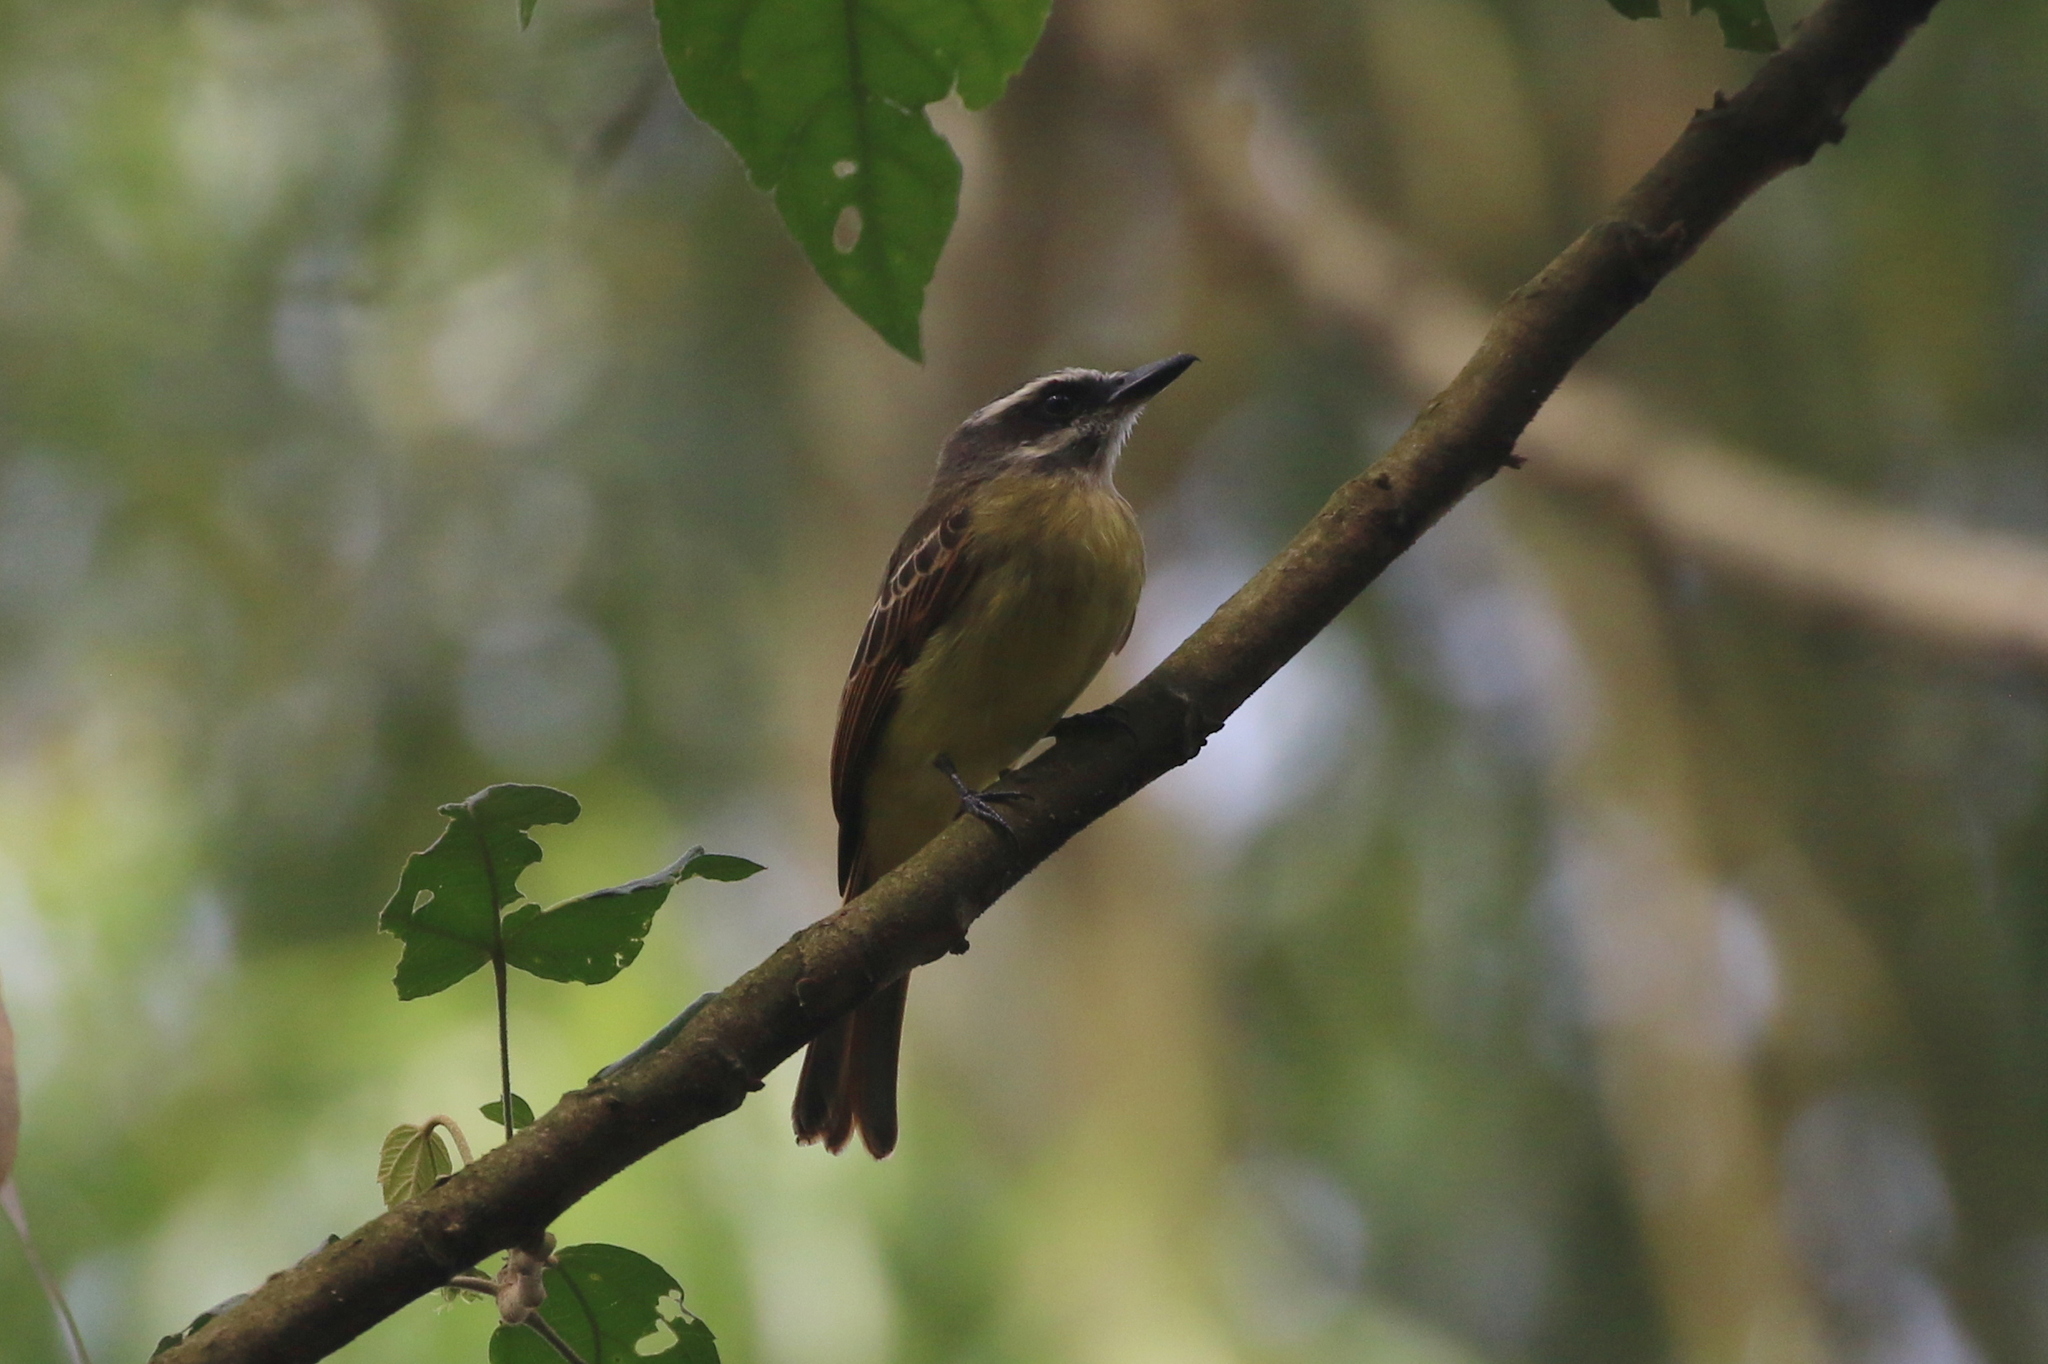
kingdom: Animalia
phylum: Chordata
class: Aves
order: Passeriformes
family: Tyrannidae
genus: Myiodynastes
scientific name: Myiodynastes hemichrysus
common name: Golden-bellied flycatcher
